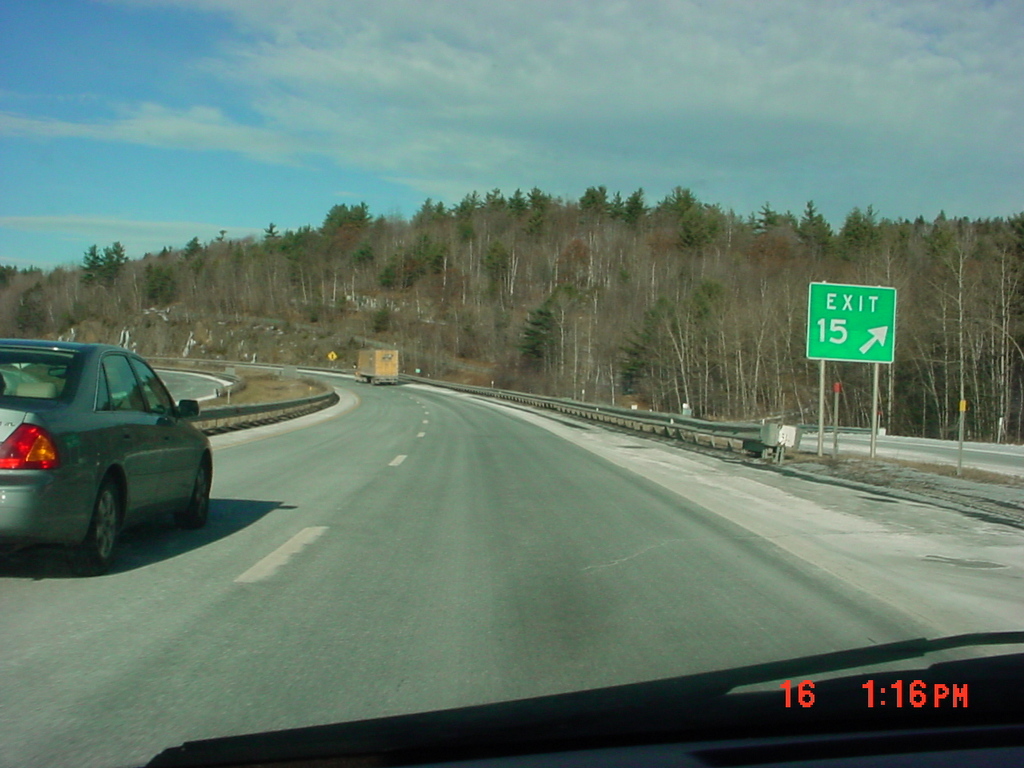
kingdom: Plantae
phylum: Tracheophyta
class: Pinopsida
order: Pinales
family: Pinaceae
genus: Pinus
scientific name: Pinus strobus
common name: Weymouth pine
